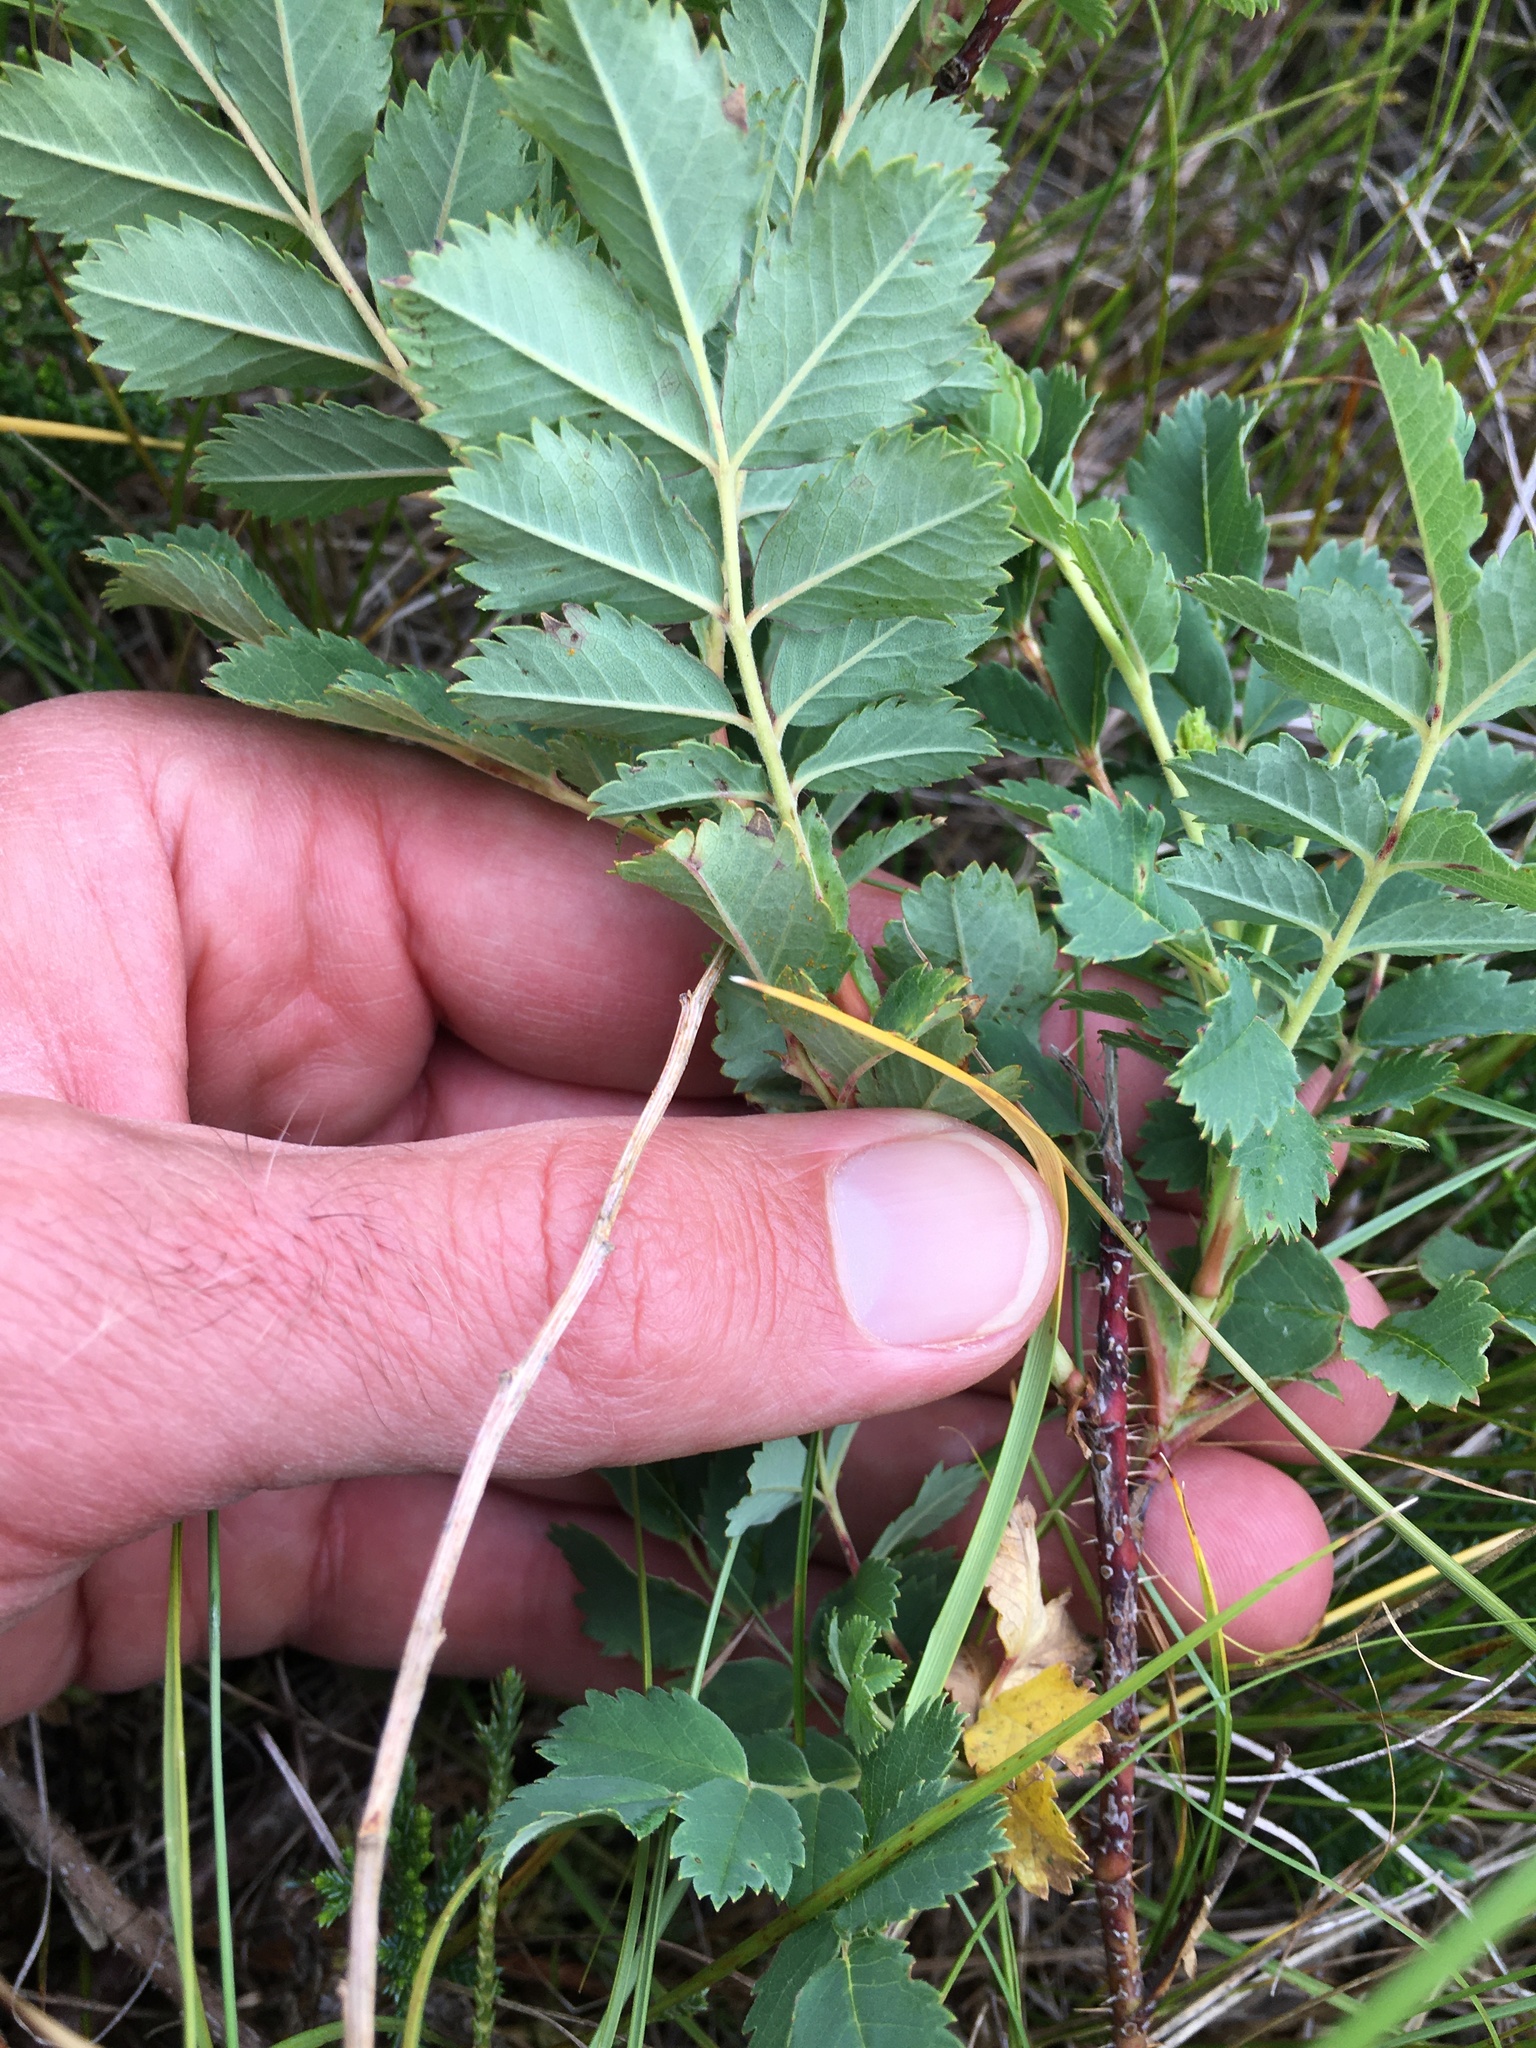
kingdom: Plantae
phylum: Tracheophyta
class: Magnoliopsida
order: Rosales
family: Rosaceae
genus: Rosa
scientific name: Rosa arkansana
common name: Prairie rose
